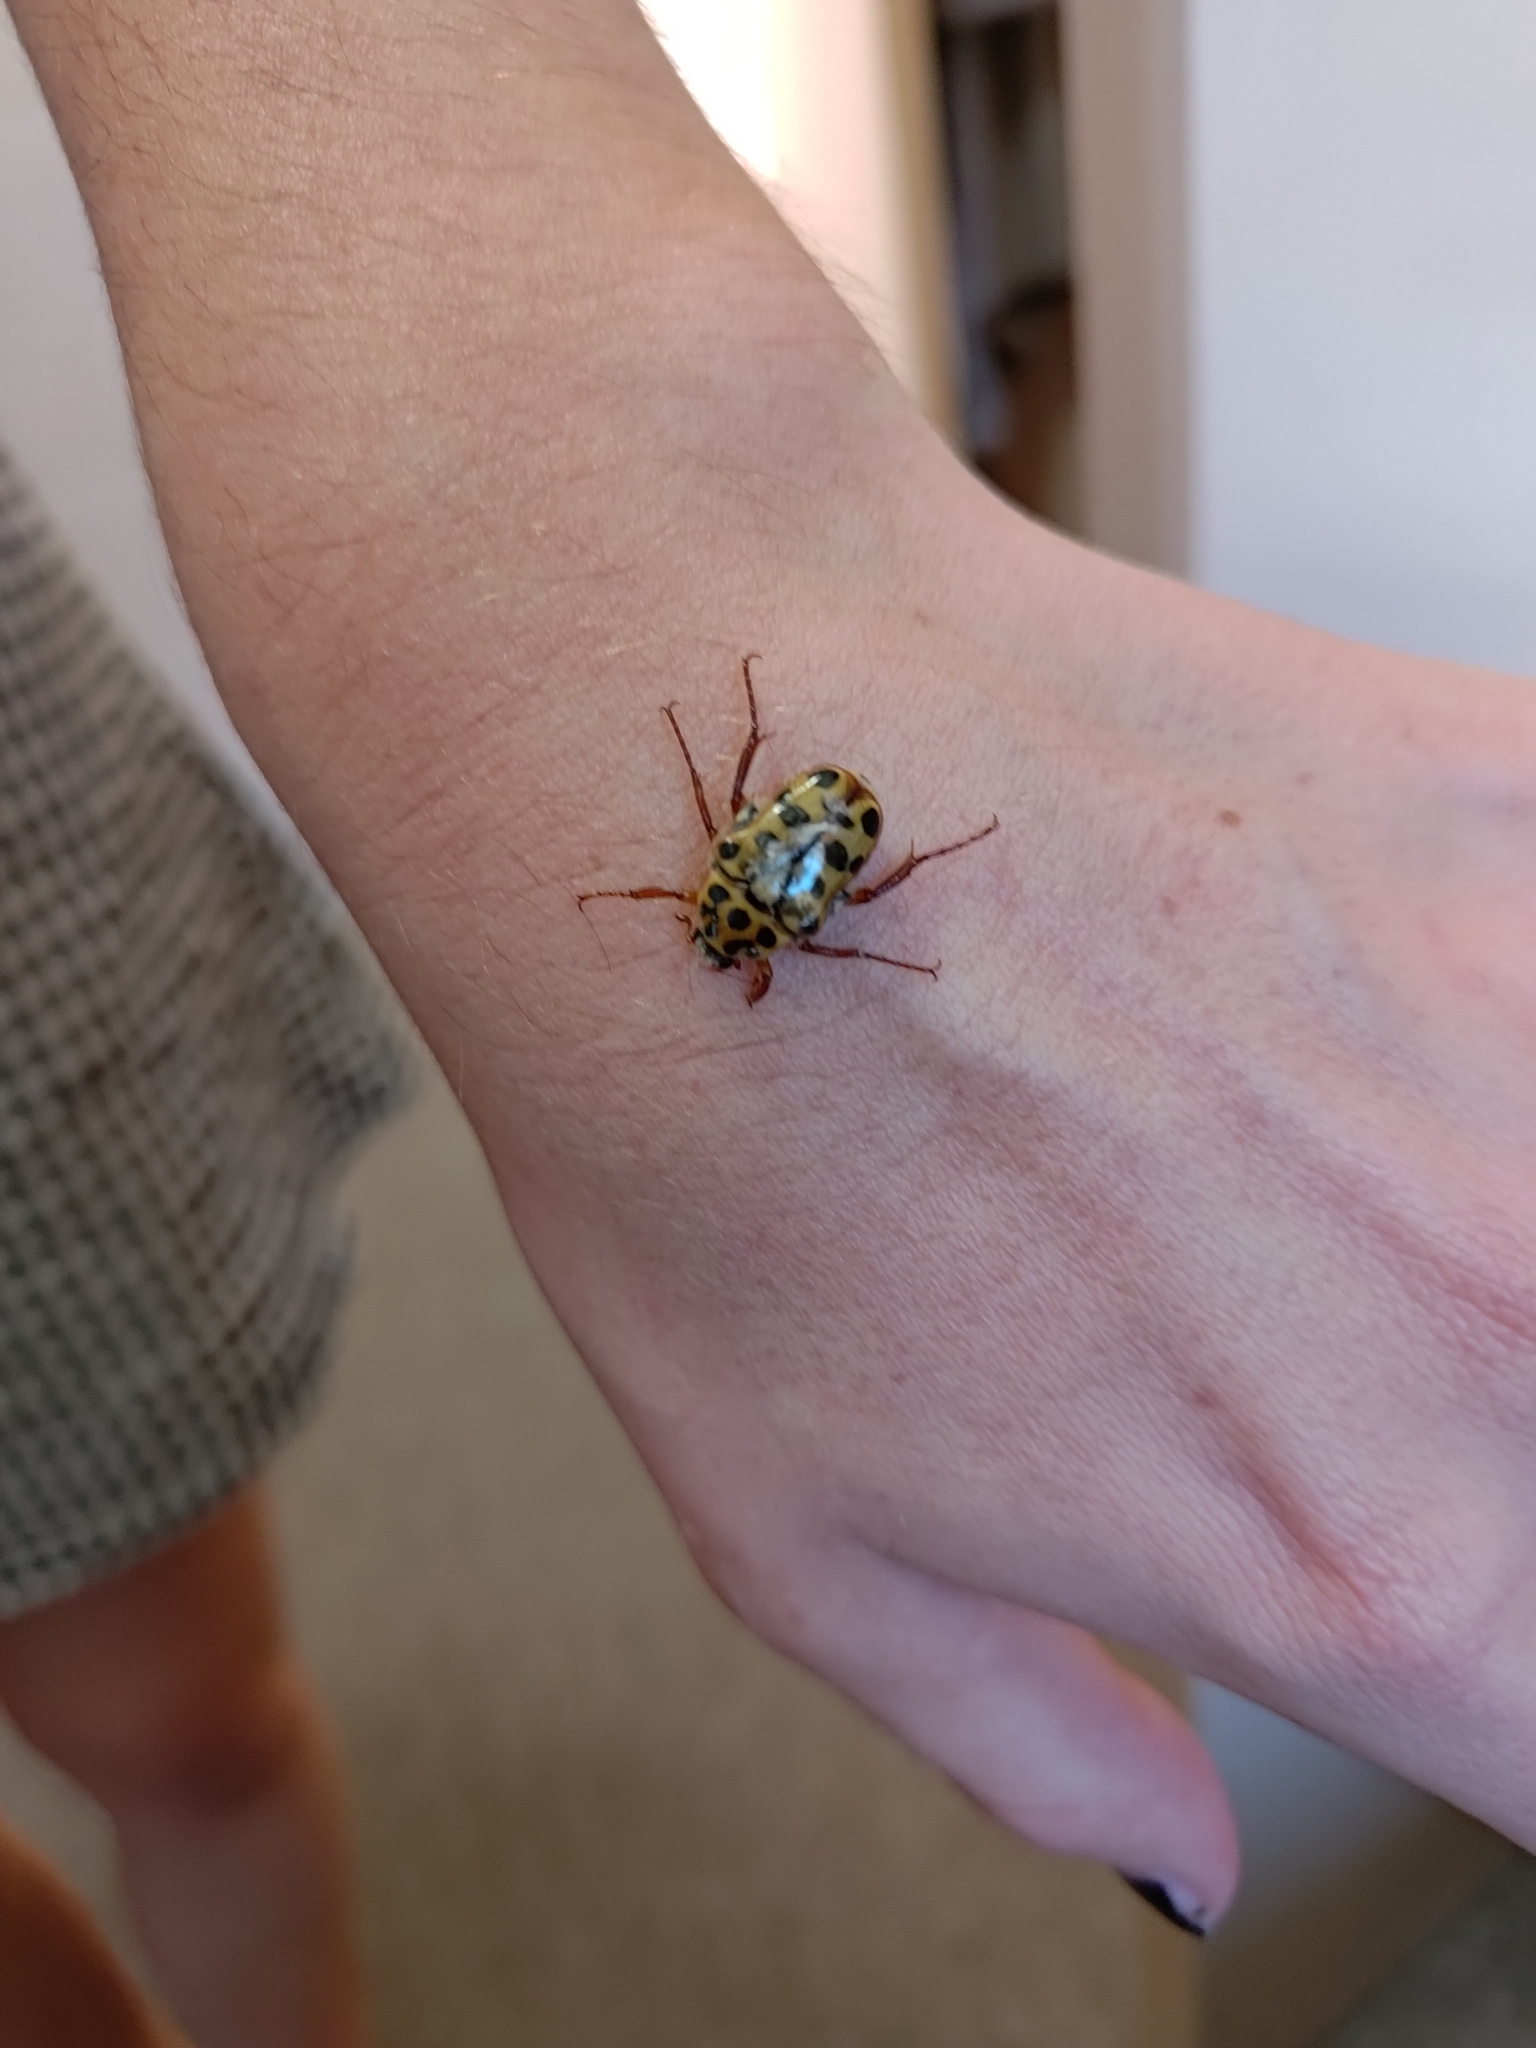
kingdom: Animalia
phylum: Arthropoda
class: Insecta
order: Coleoptera
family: Scarabaeidae
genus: Neorrhina
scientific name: Neorrhina punctatum
